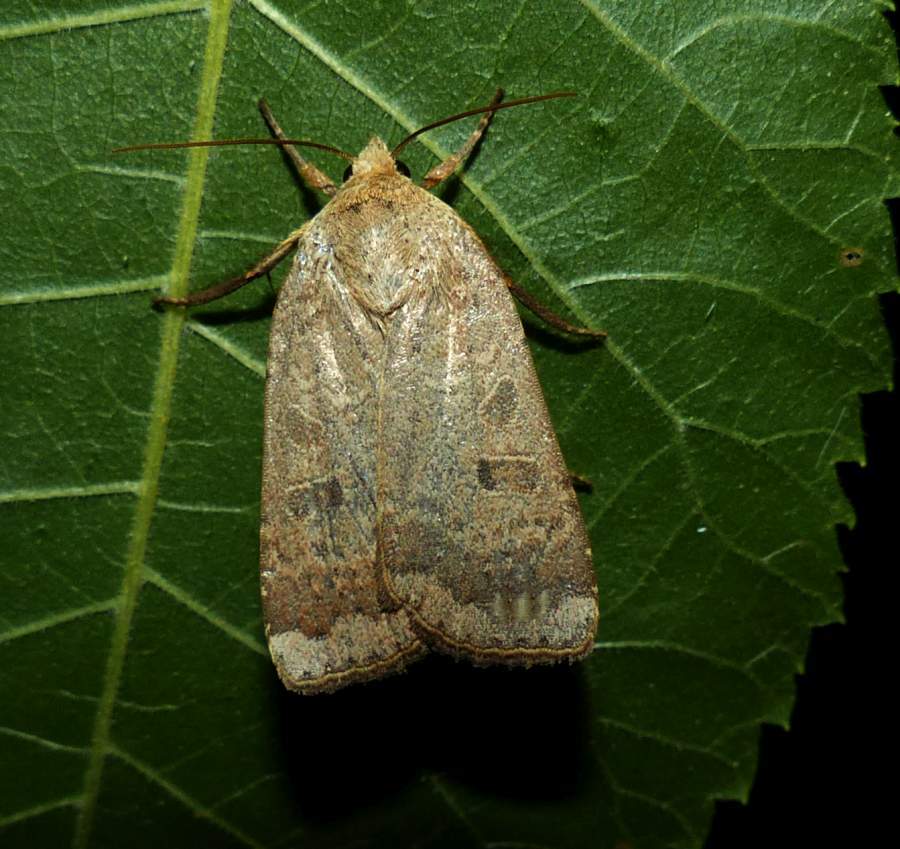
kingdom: Animalia
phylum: Arthropoda
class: Insecta
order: Lepidoptera
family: Noctuidae
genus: Abagrotis
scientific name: Abagrotis alternata
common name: Greater red dart
